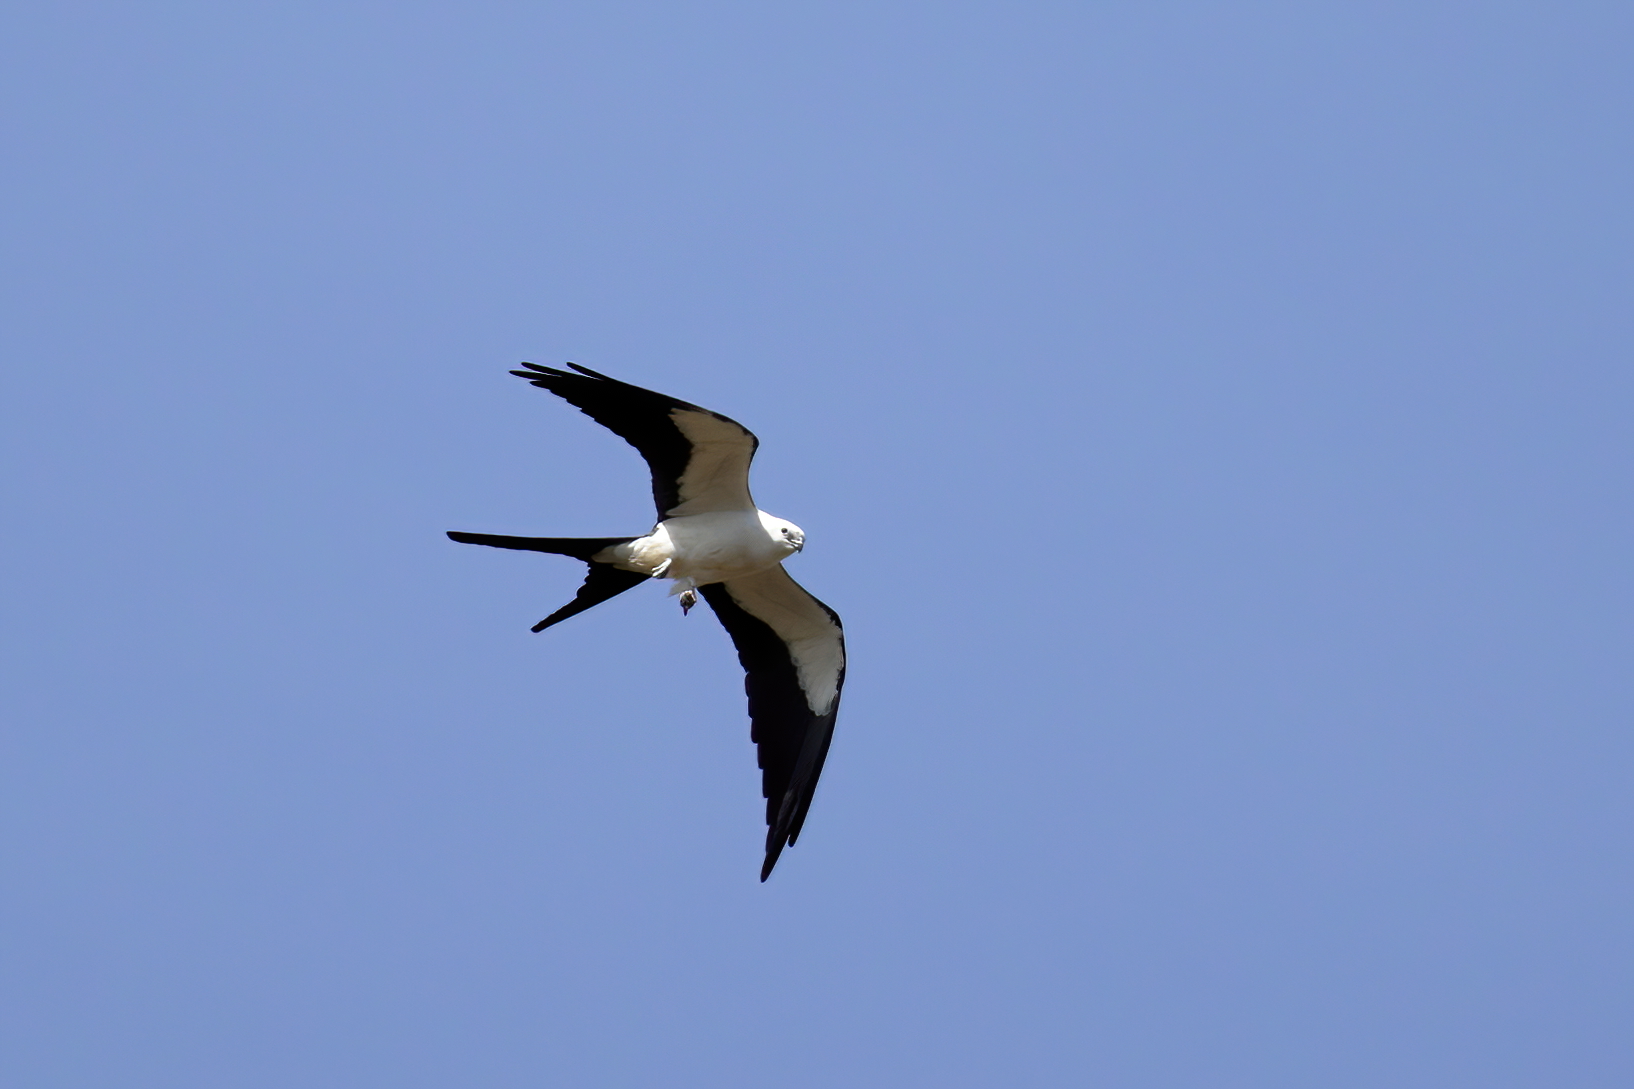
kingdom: Animalia
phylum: Chordata
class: Aves
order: Accipitriformes
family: Accipitridae
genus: Elanoides
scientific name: Elanoides forficatus
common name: Swallow-tailed kite
